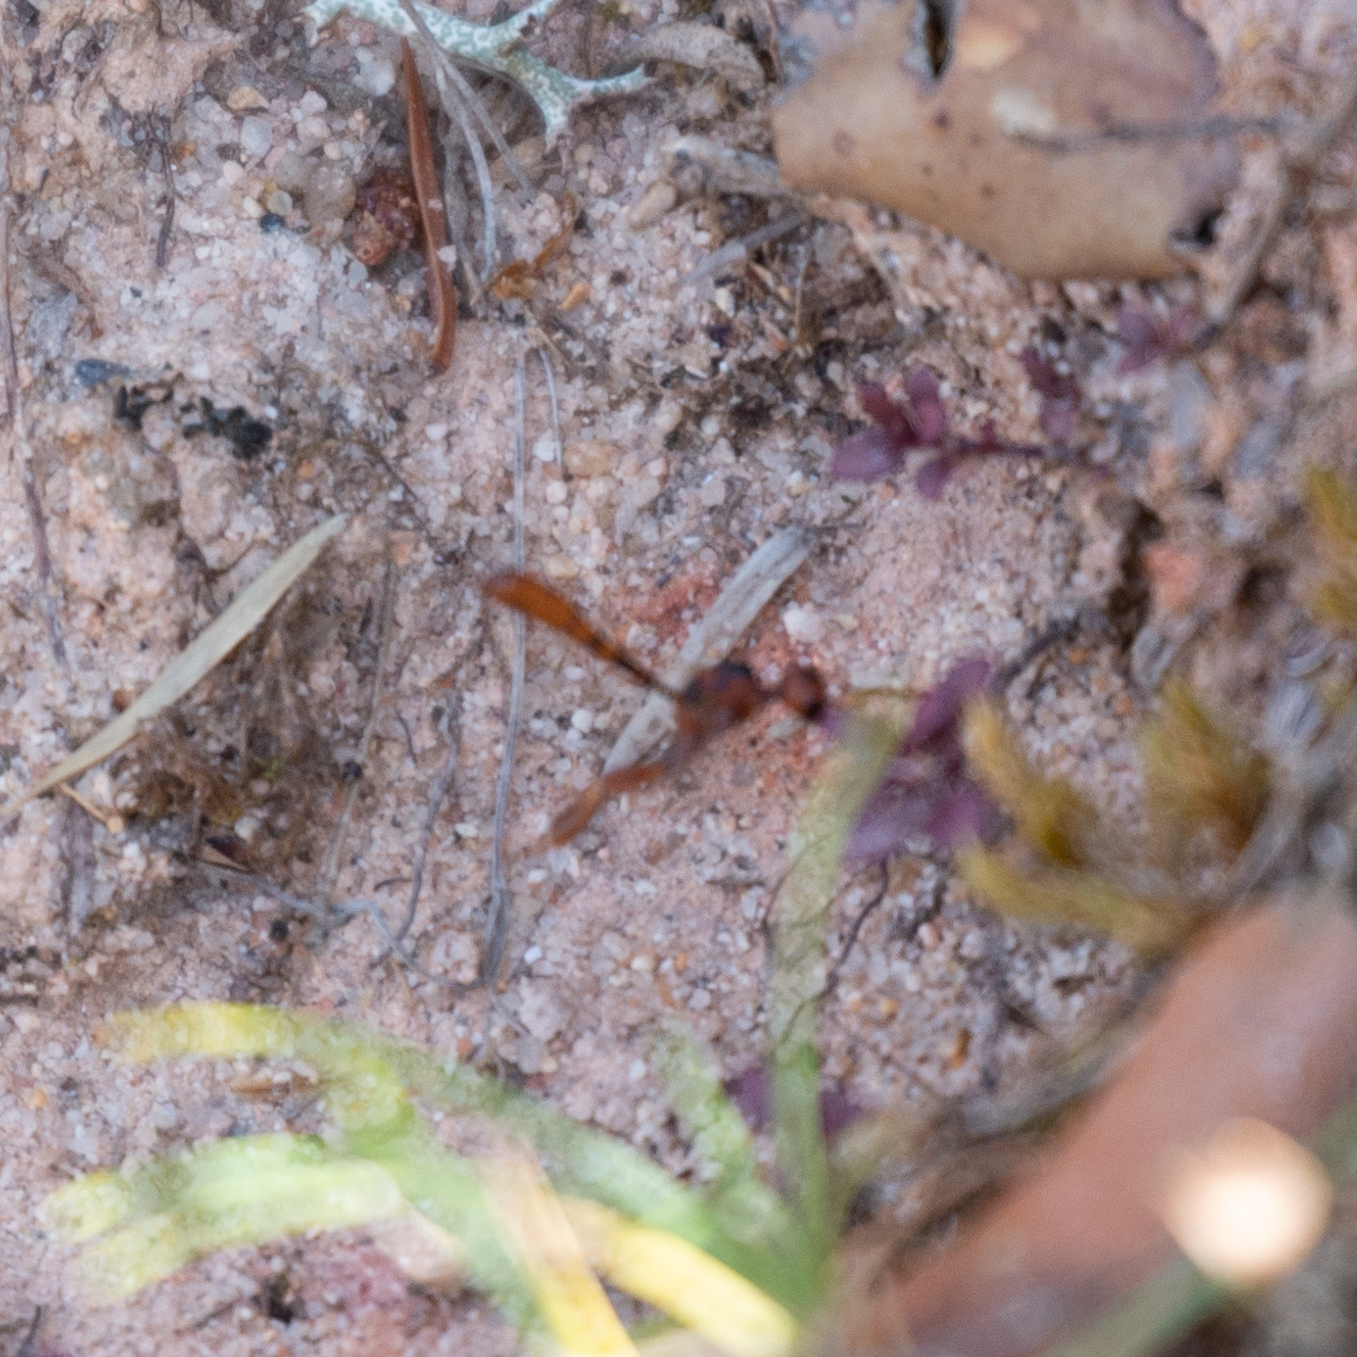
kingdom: Animalia
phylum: Arthropoda
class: Insecta
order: Hymenoptera
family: Gasteruptiidae
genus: Gasteruption
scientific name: Gasteruption hastator
